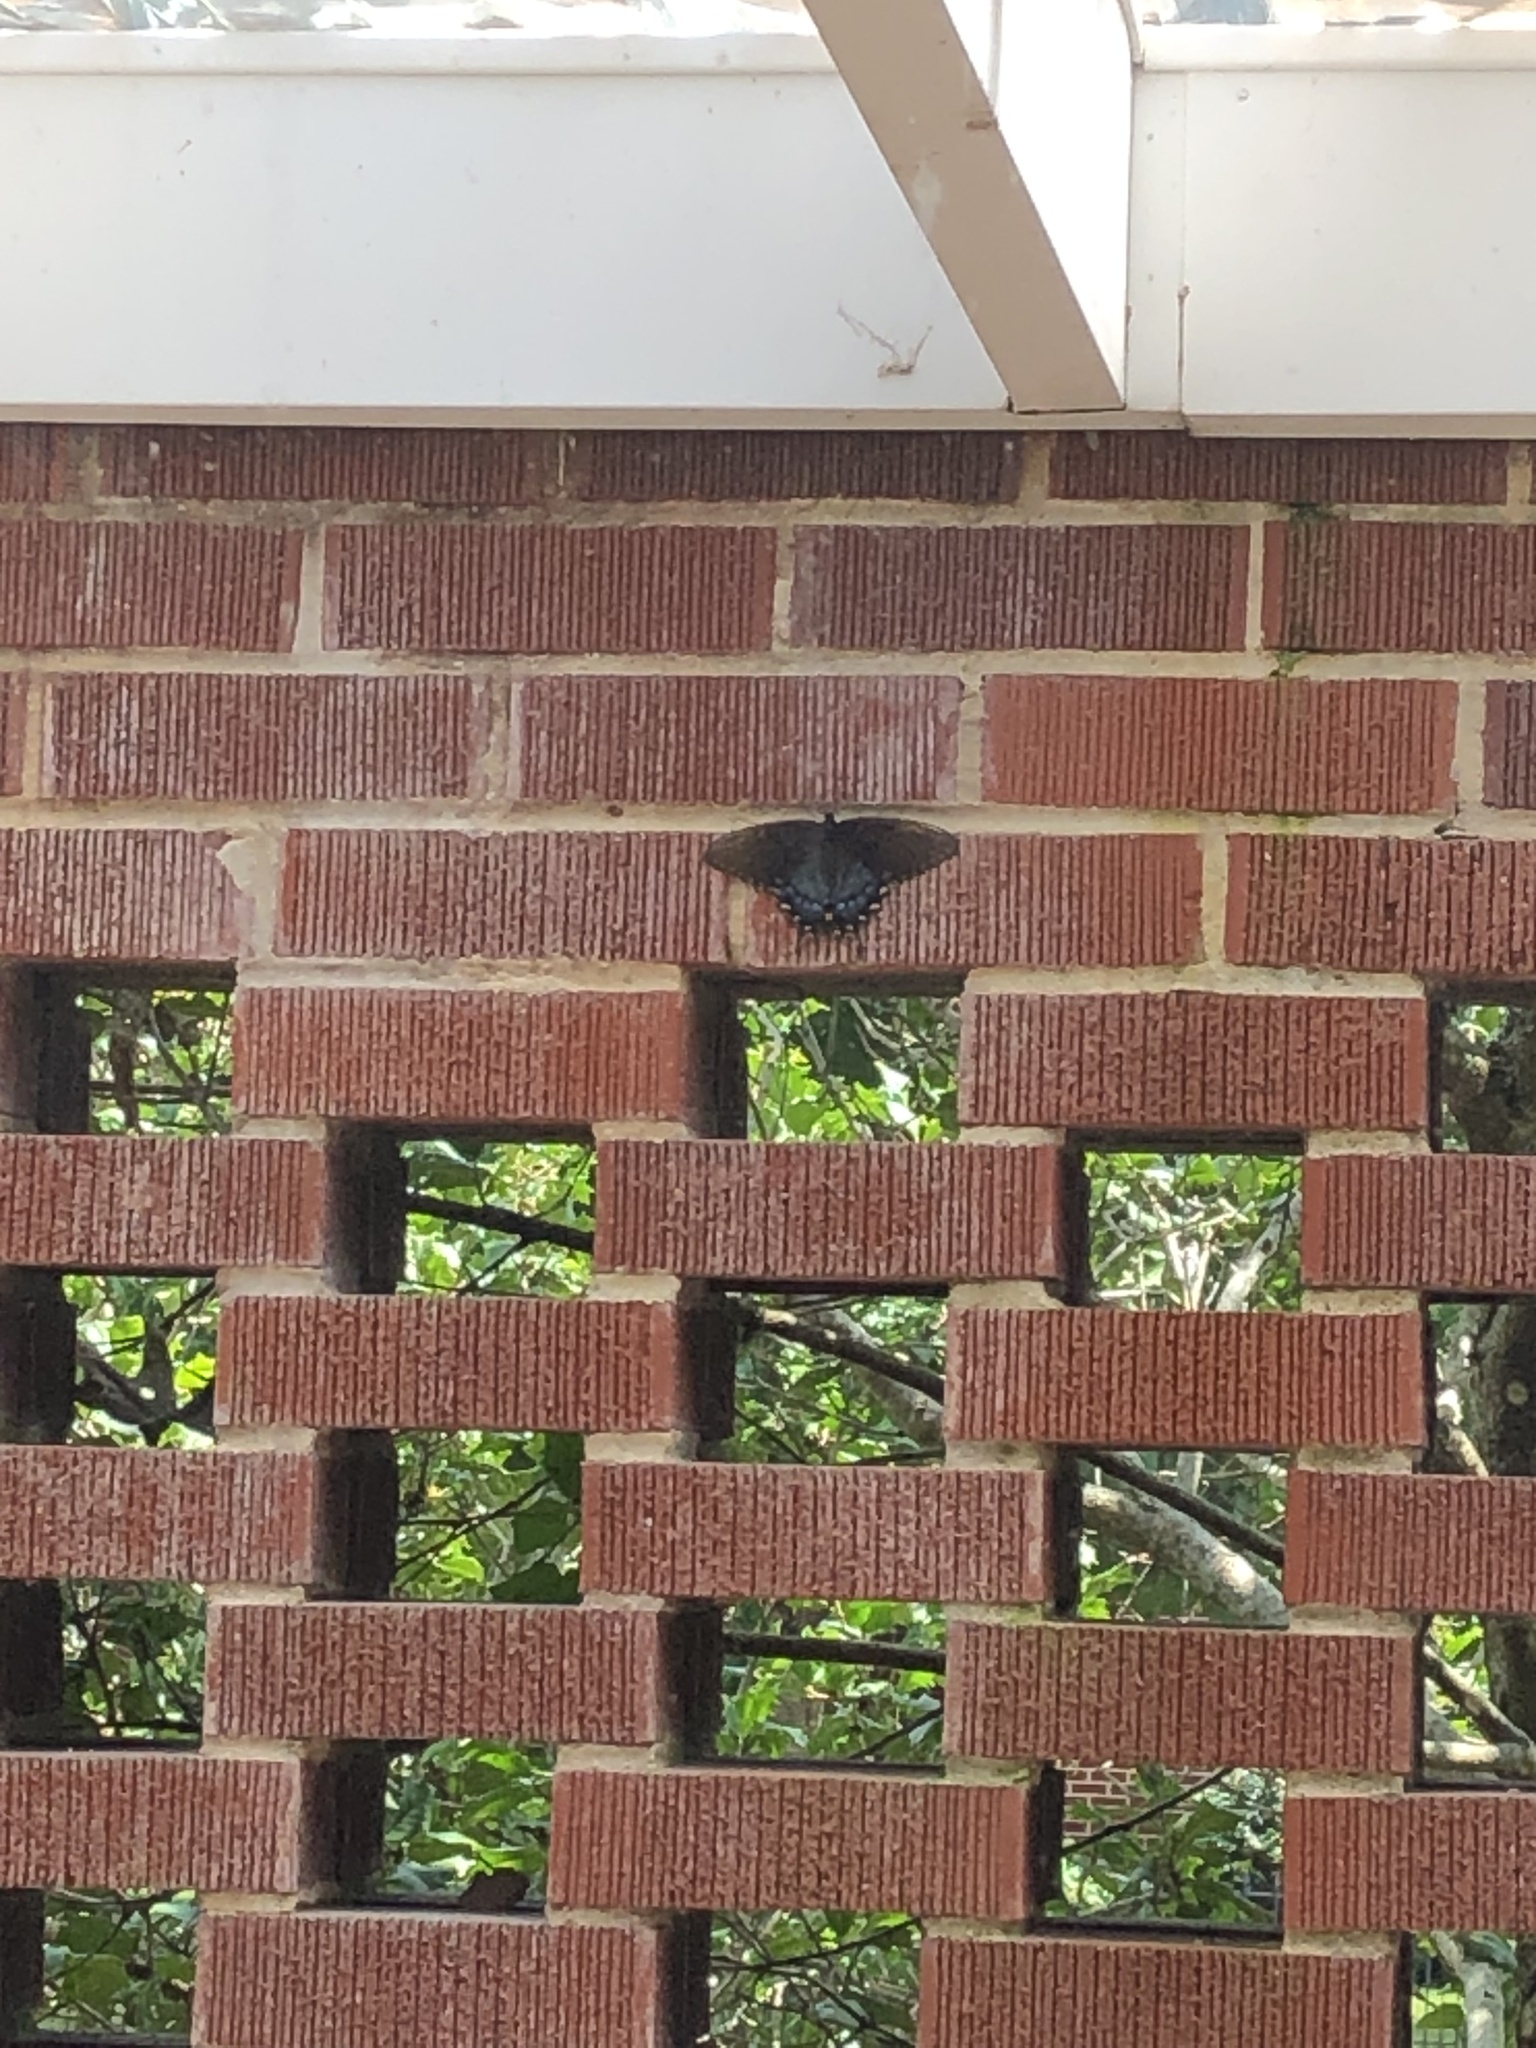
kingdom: Animalia
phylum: Arthropoda
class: Insecta
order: Lepidoptera
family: Papilionidae
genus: Papilio
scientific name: Papilio glaucus
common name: Tiger swallowtail
